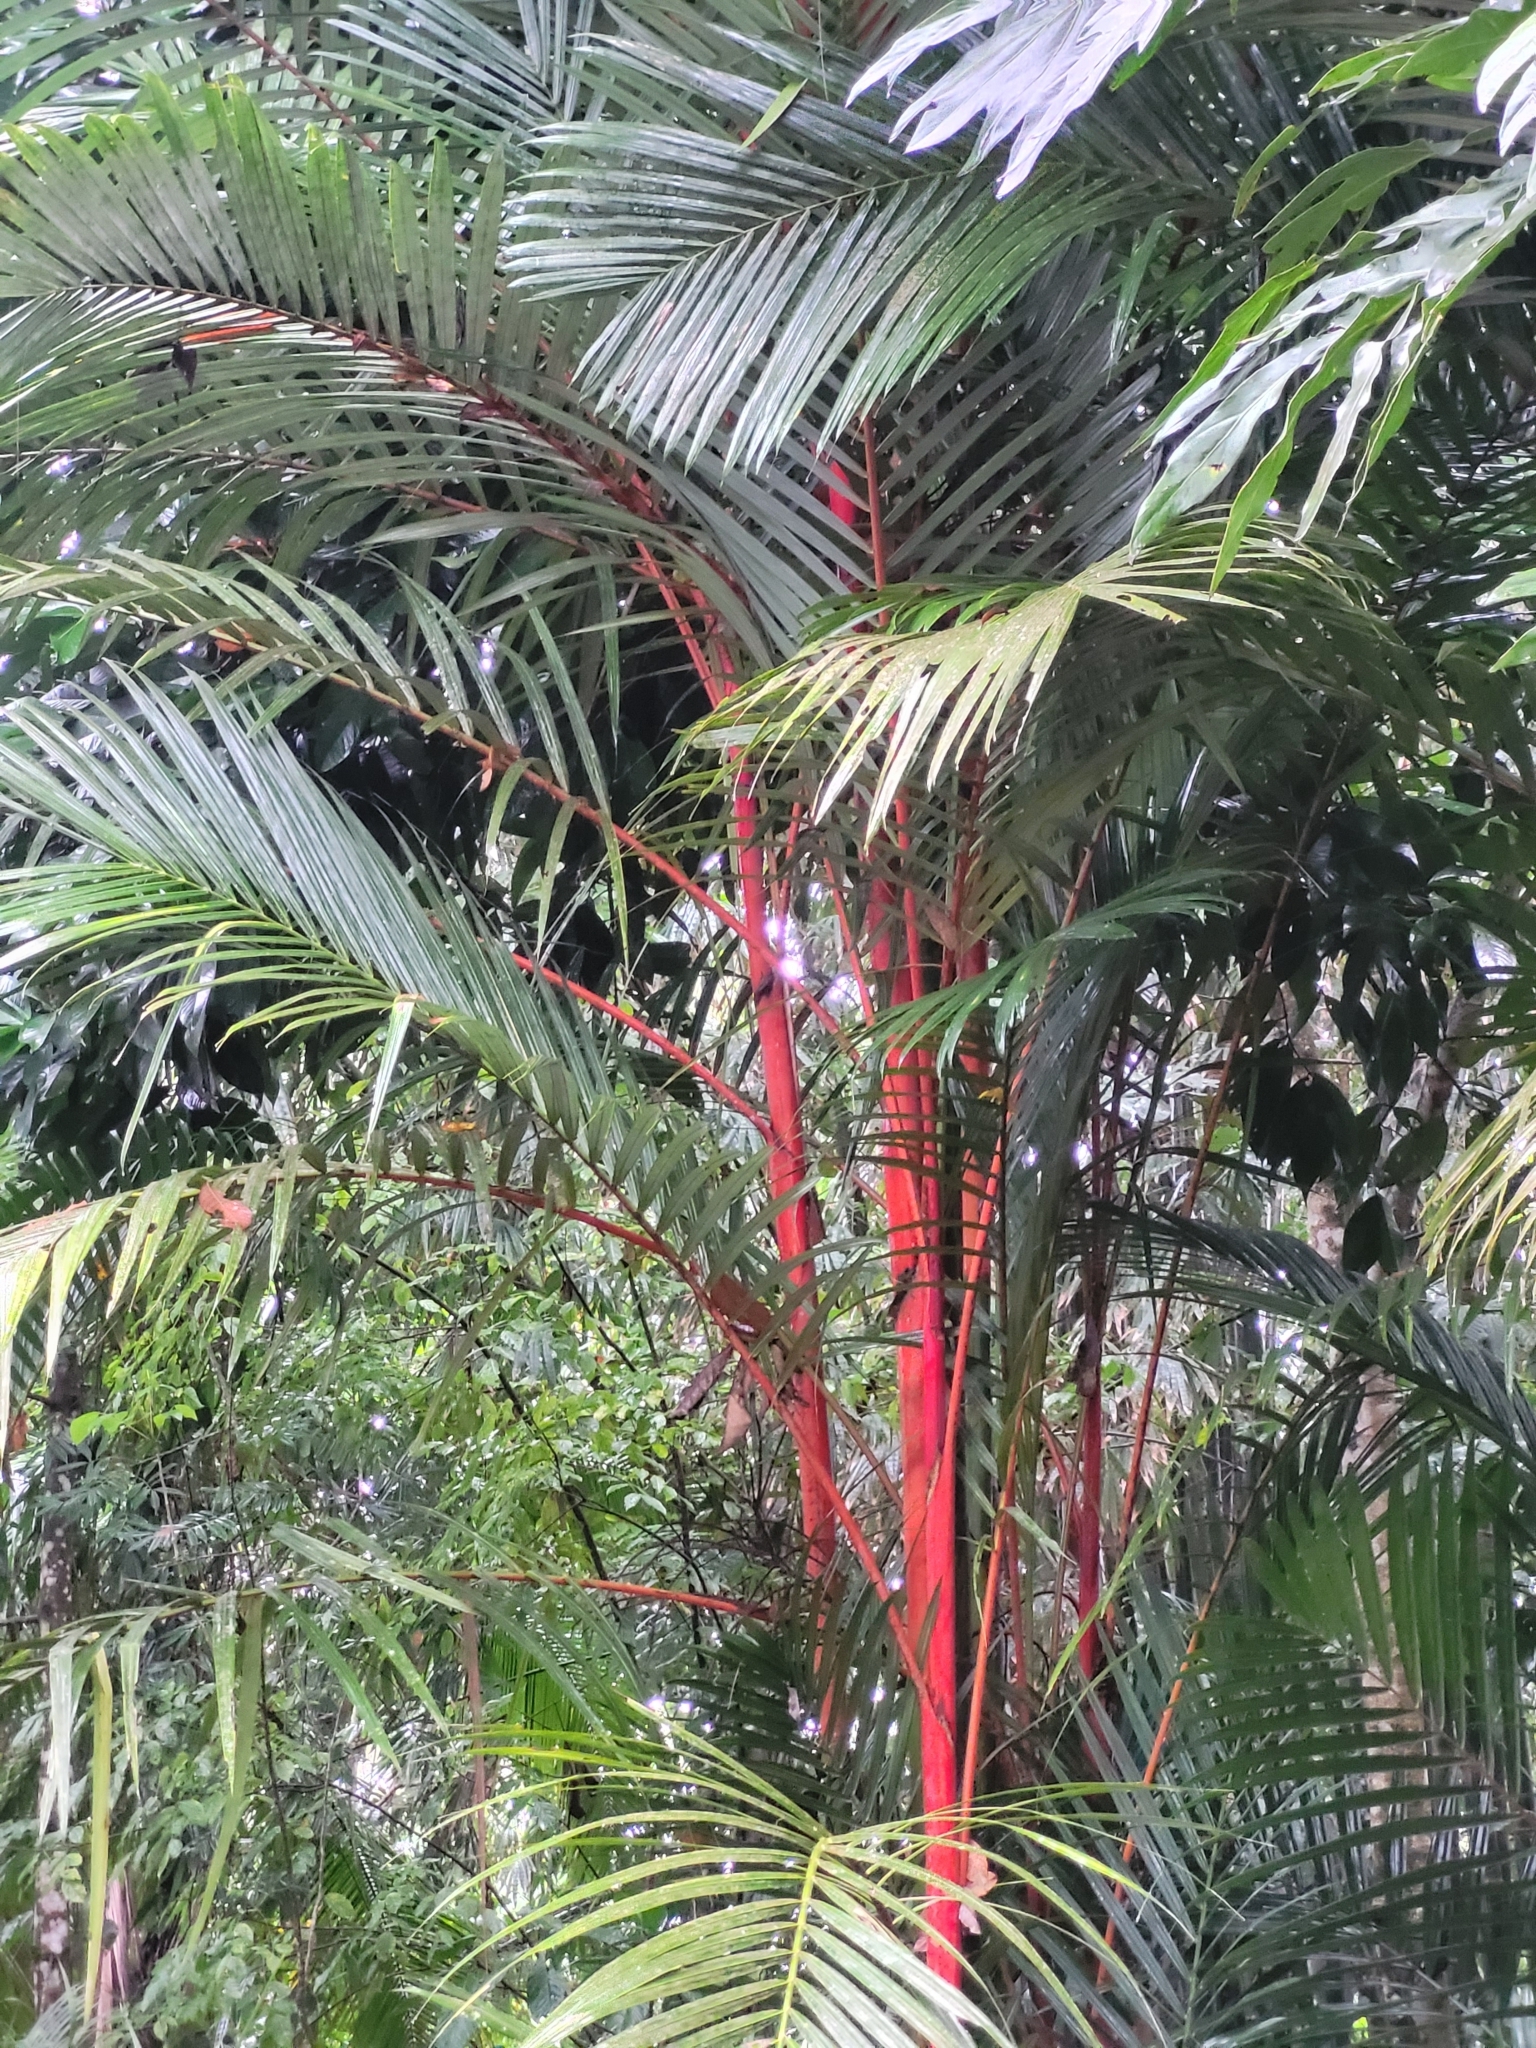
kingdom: Plantae
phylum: Tracheophyta
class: Liliopsida
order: Arecales
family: Arecaceae
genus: Cyrtostachys
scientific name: Cyrtostachys renda
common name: Lipstick palm
